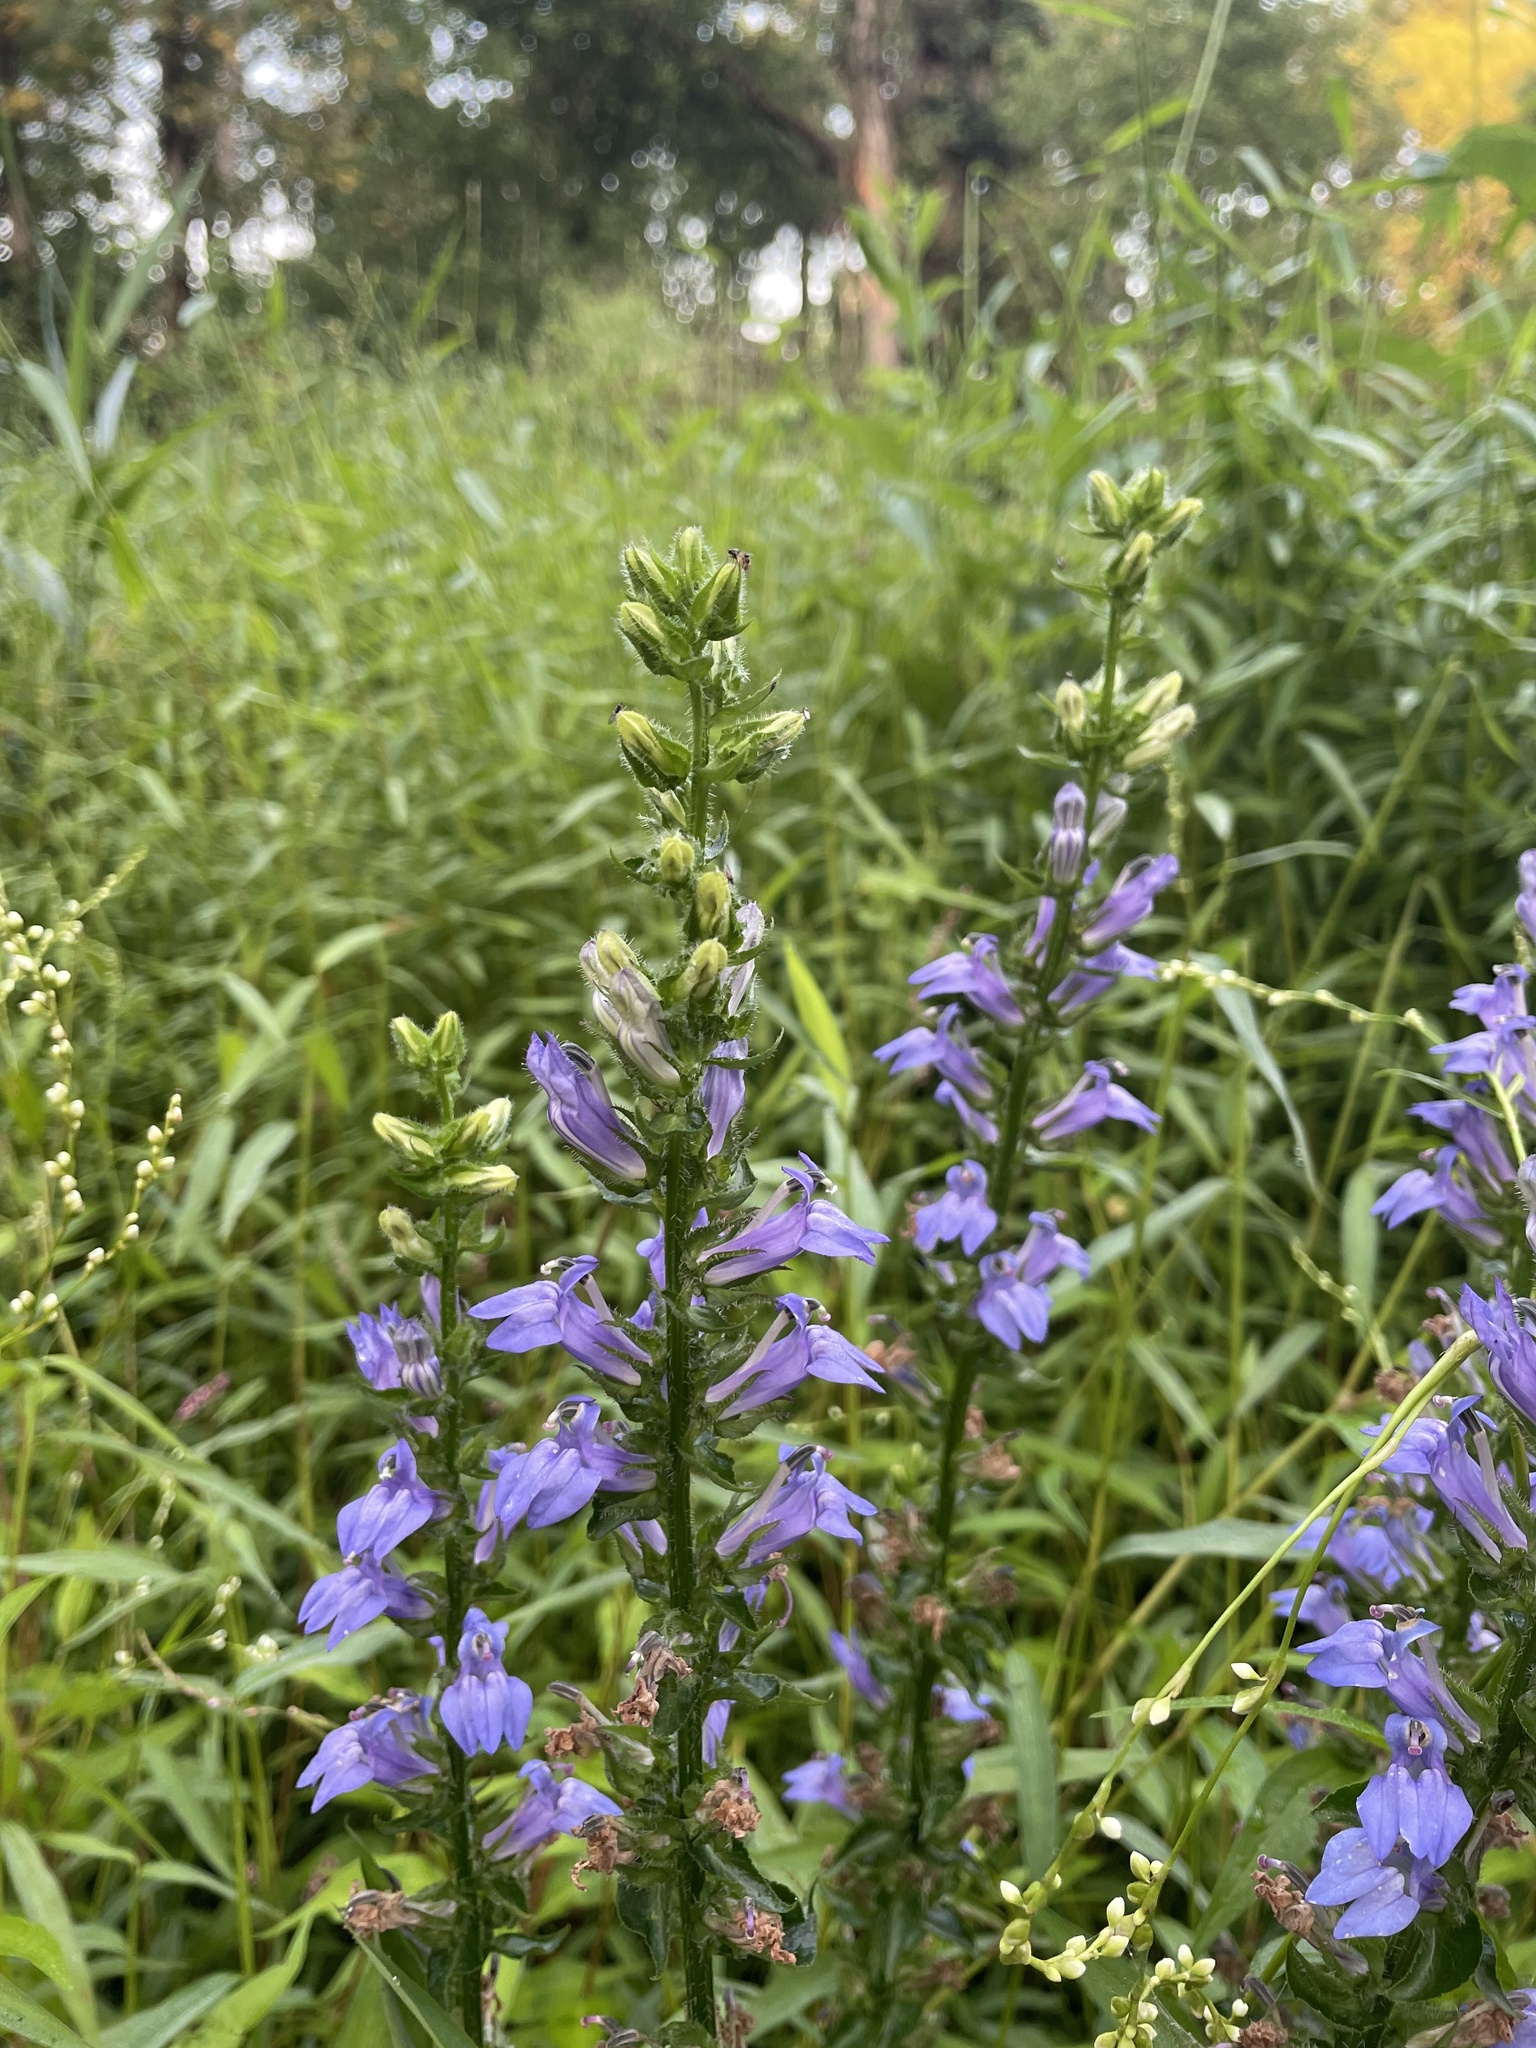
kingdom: Plantae
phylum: Tracheophyta
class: Magnoliopsida
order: Asterales
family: Campanulaceae
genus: Lobelia
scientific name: Lobelia siphilitica
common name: Great lobelia
